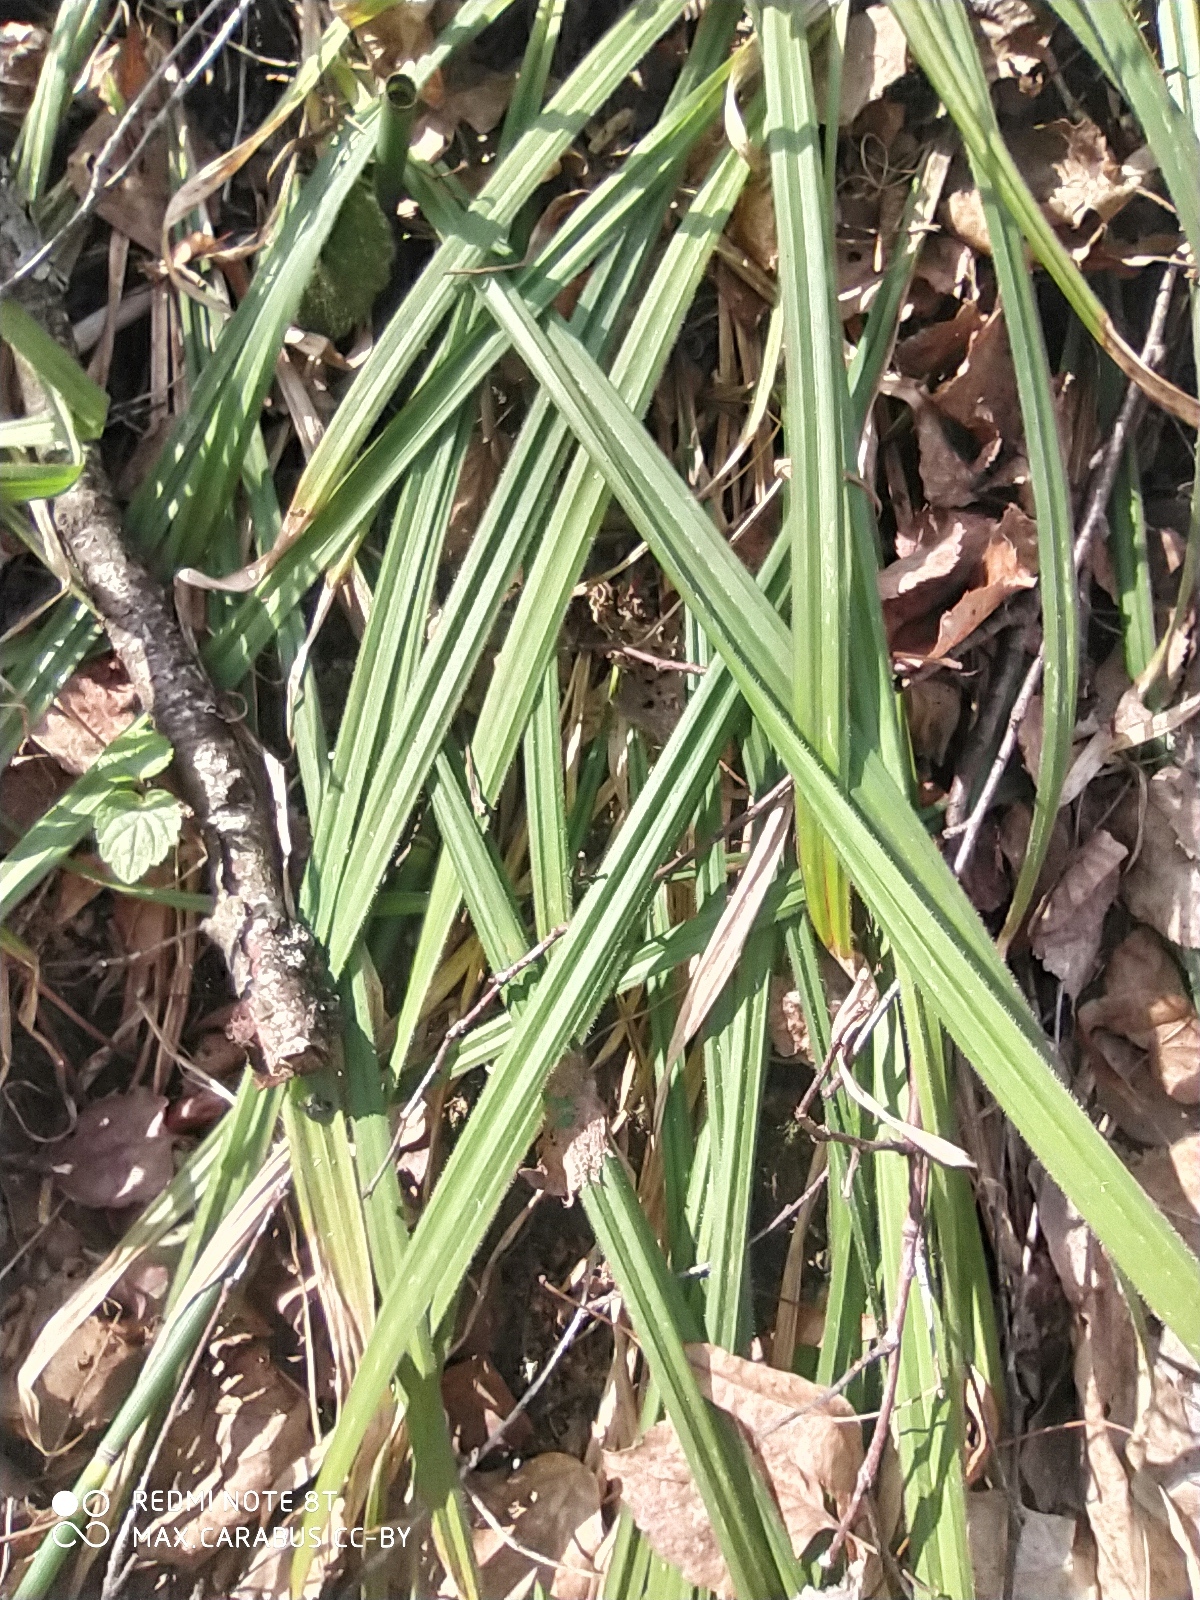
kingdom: Plantae
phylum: Tracheophyta
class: Liliopsida
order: Poales
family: Cyperaceae
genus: Carex
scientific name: Carex pilosa
